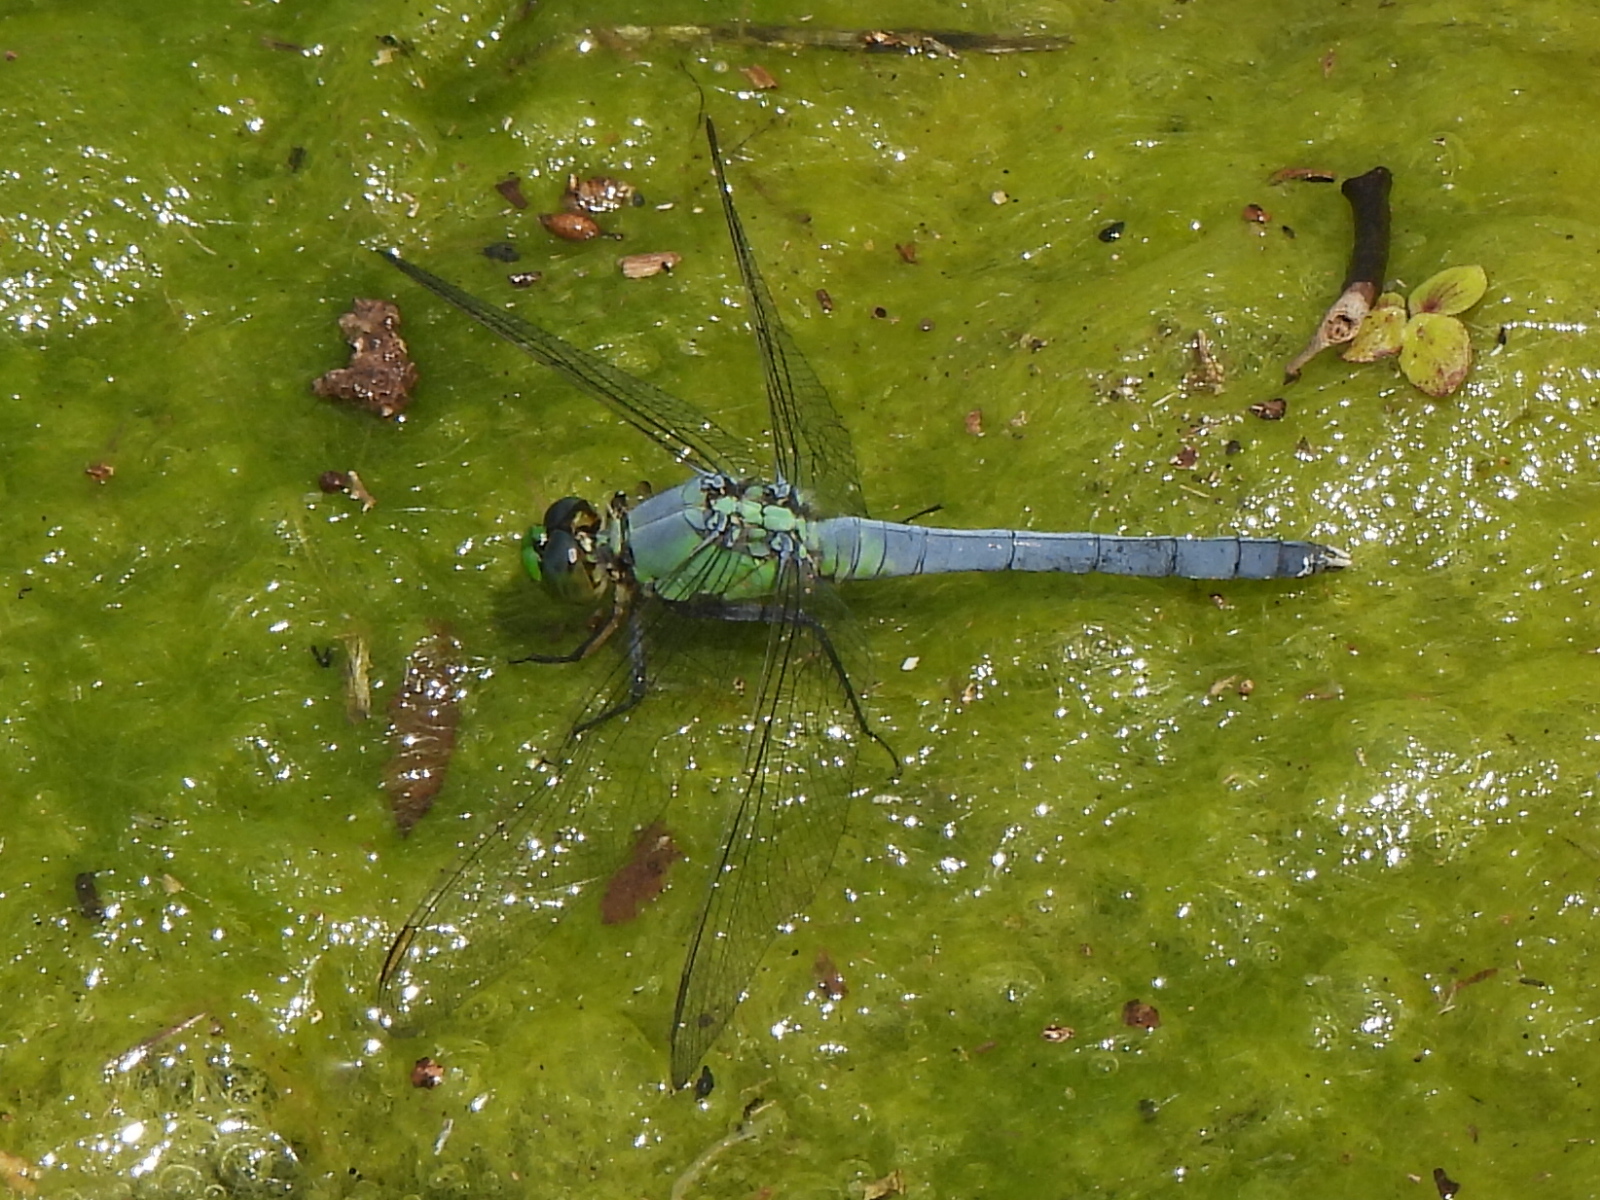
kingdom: Animalia
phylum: Arthropoda
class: Insecta
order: Odonata
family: Libellulidae
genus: Erythemis
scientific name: Erythemis simplicicollis
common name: Eastern pondhawk
